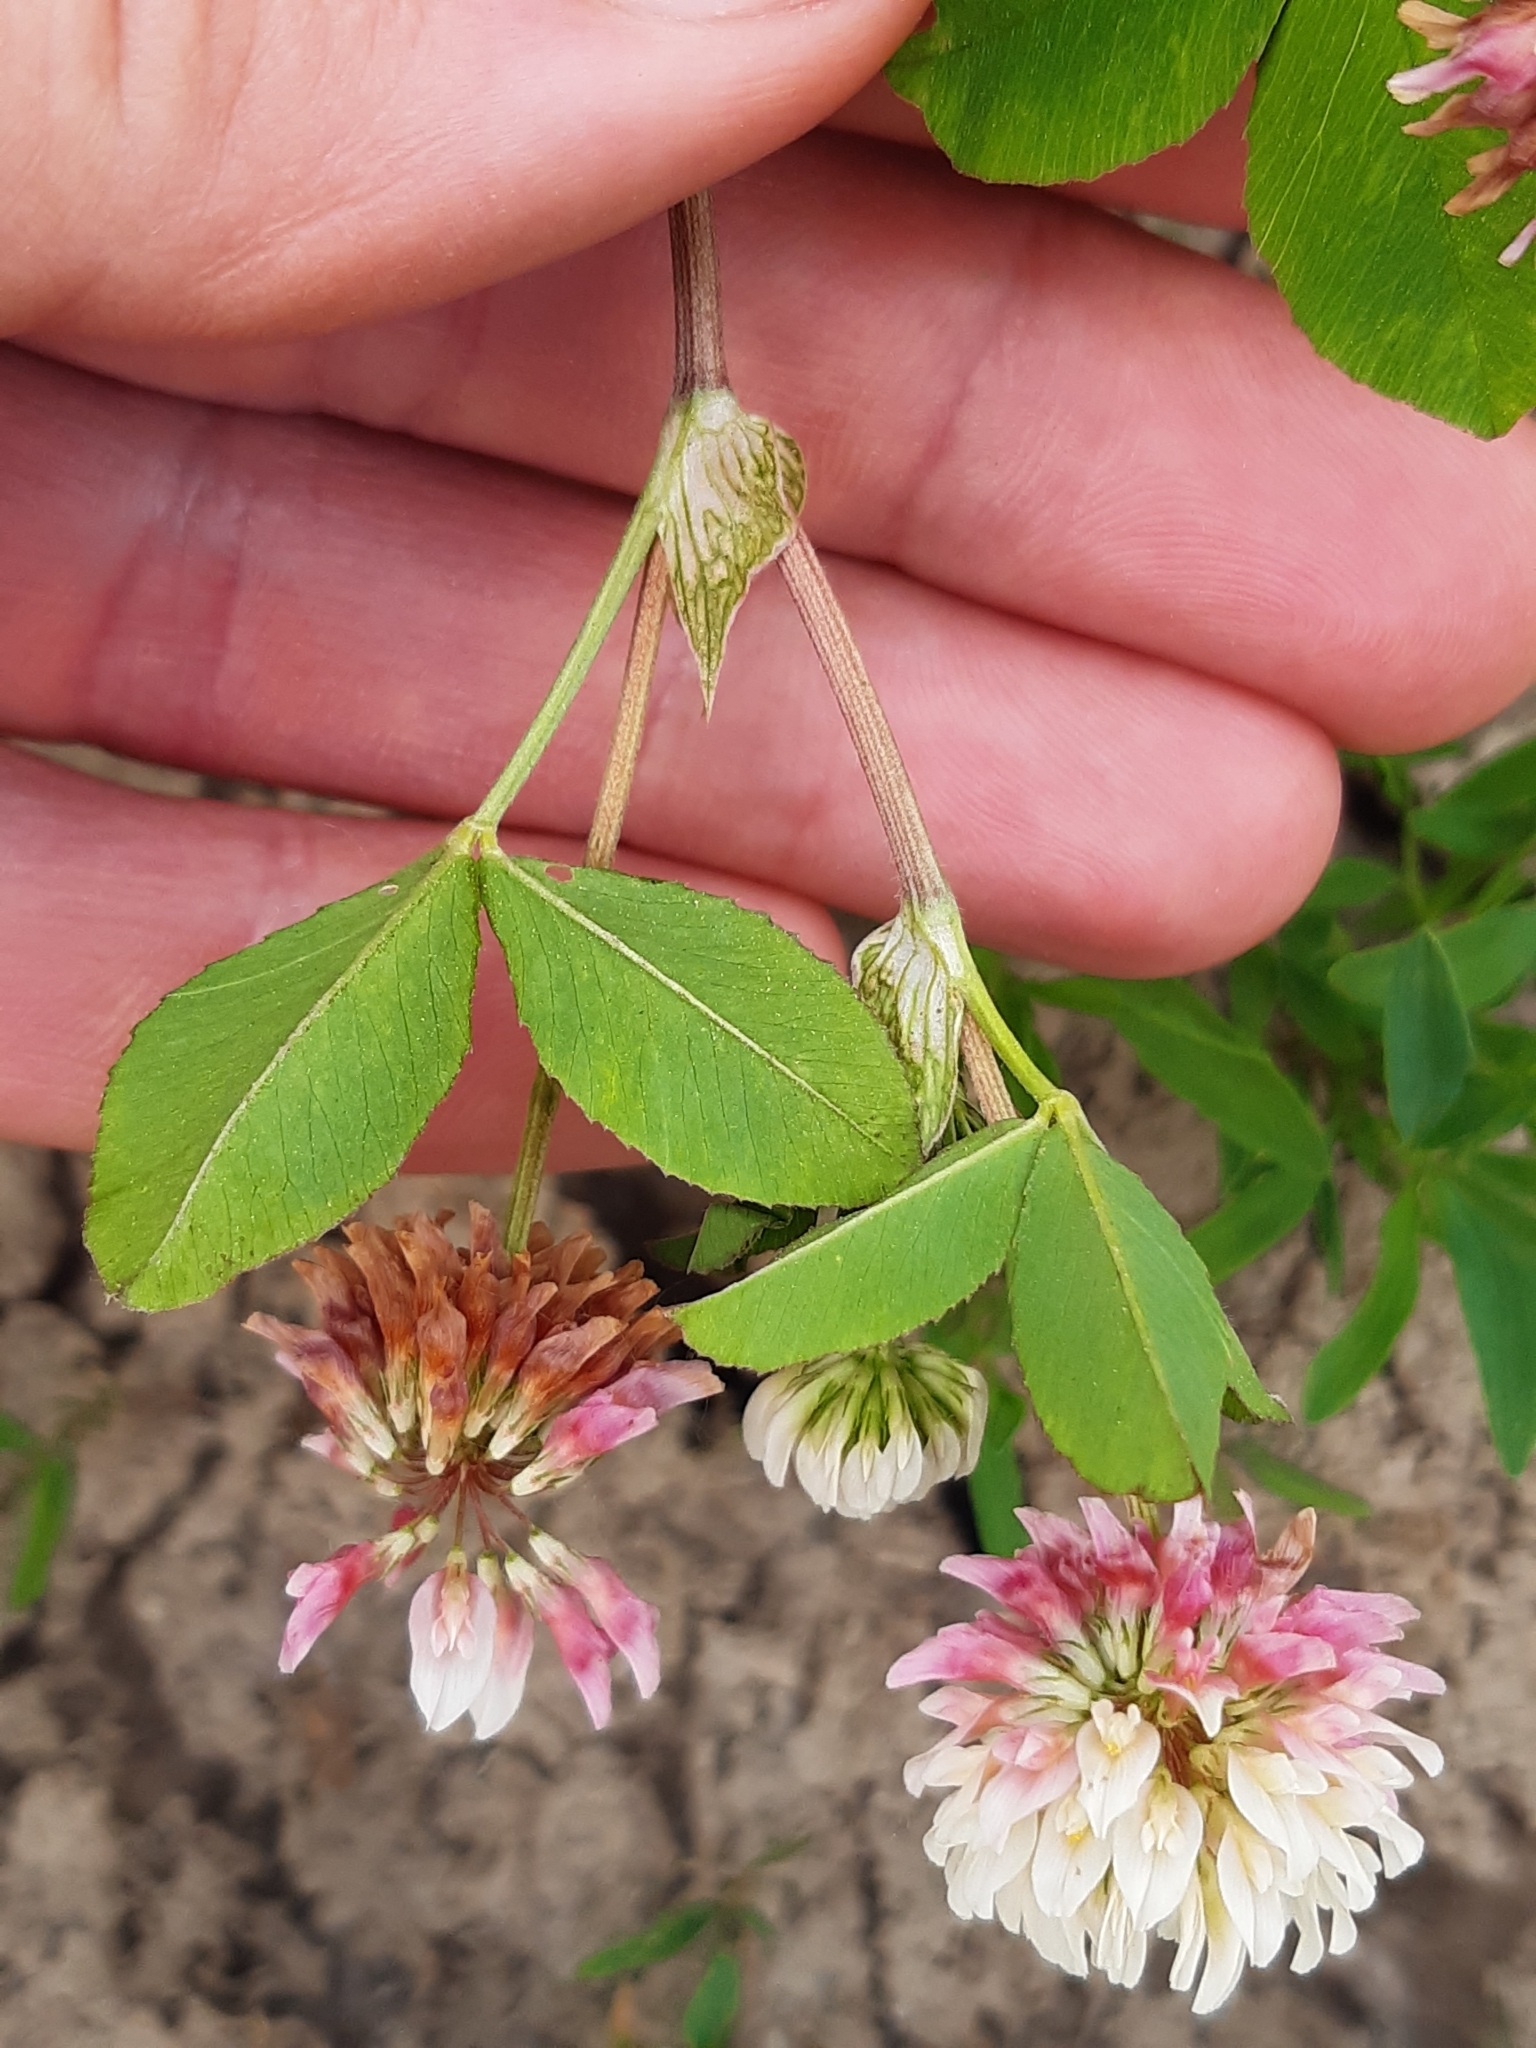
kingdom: Plantae
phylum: Tracheophyta
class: Magnoliopsida
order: Fabales
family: Fabaceae
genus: Trifolium
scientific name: Trifolium hybridum
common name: Alsike clover
